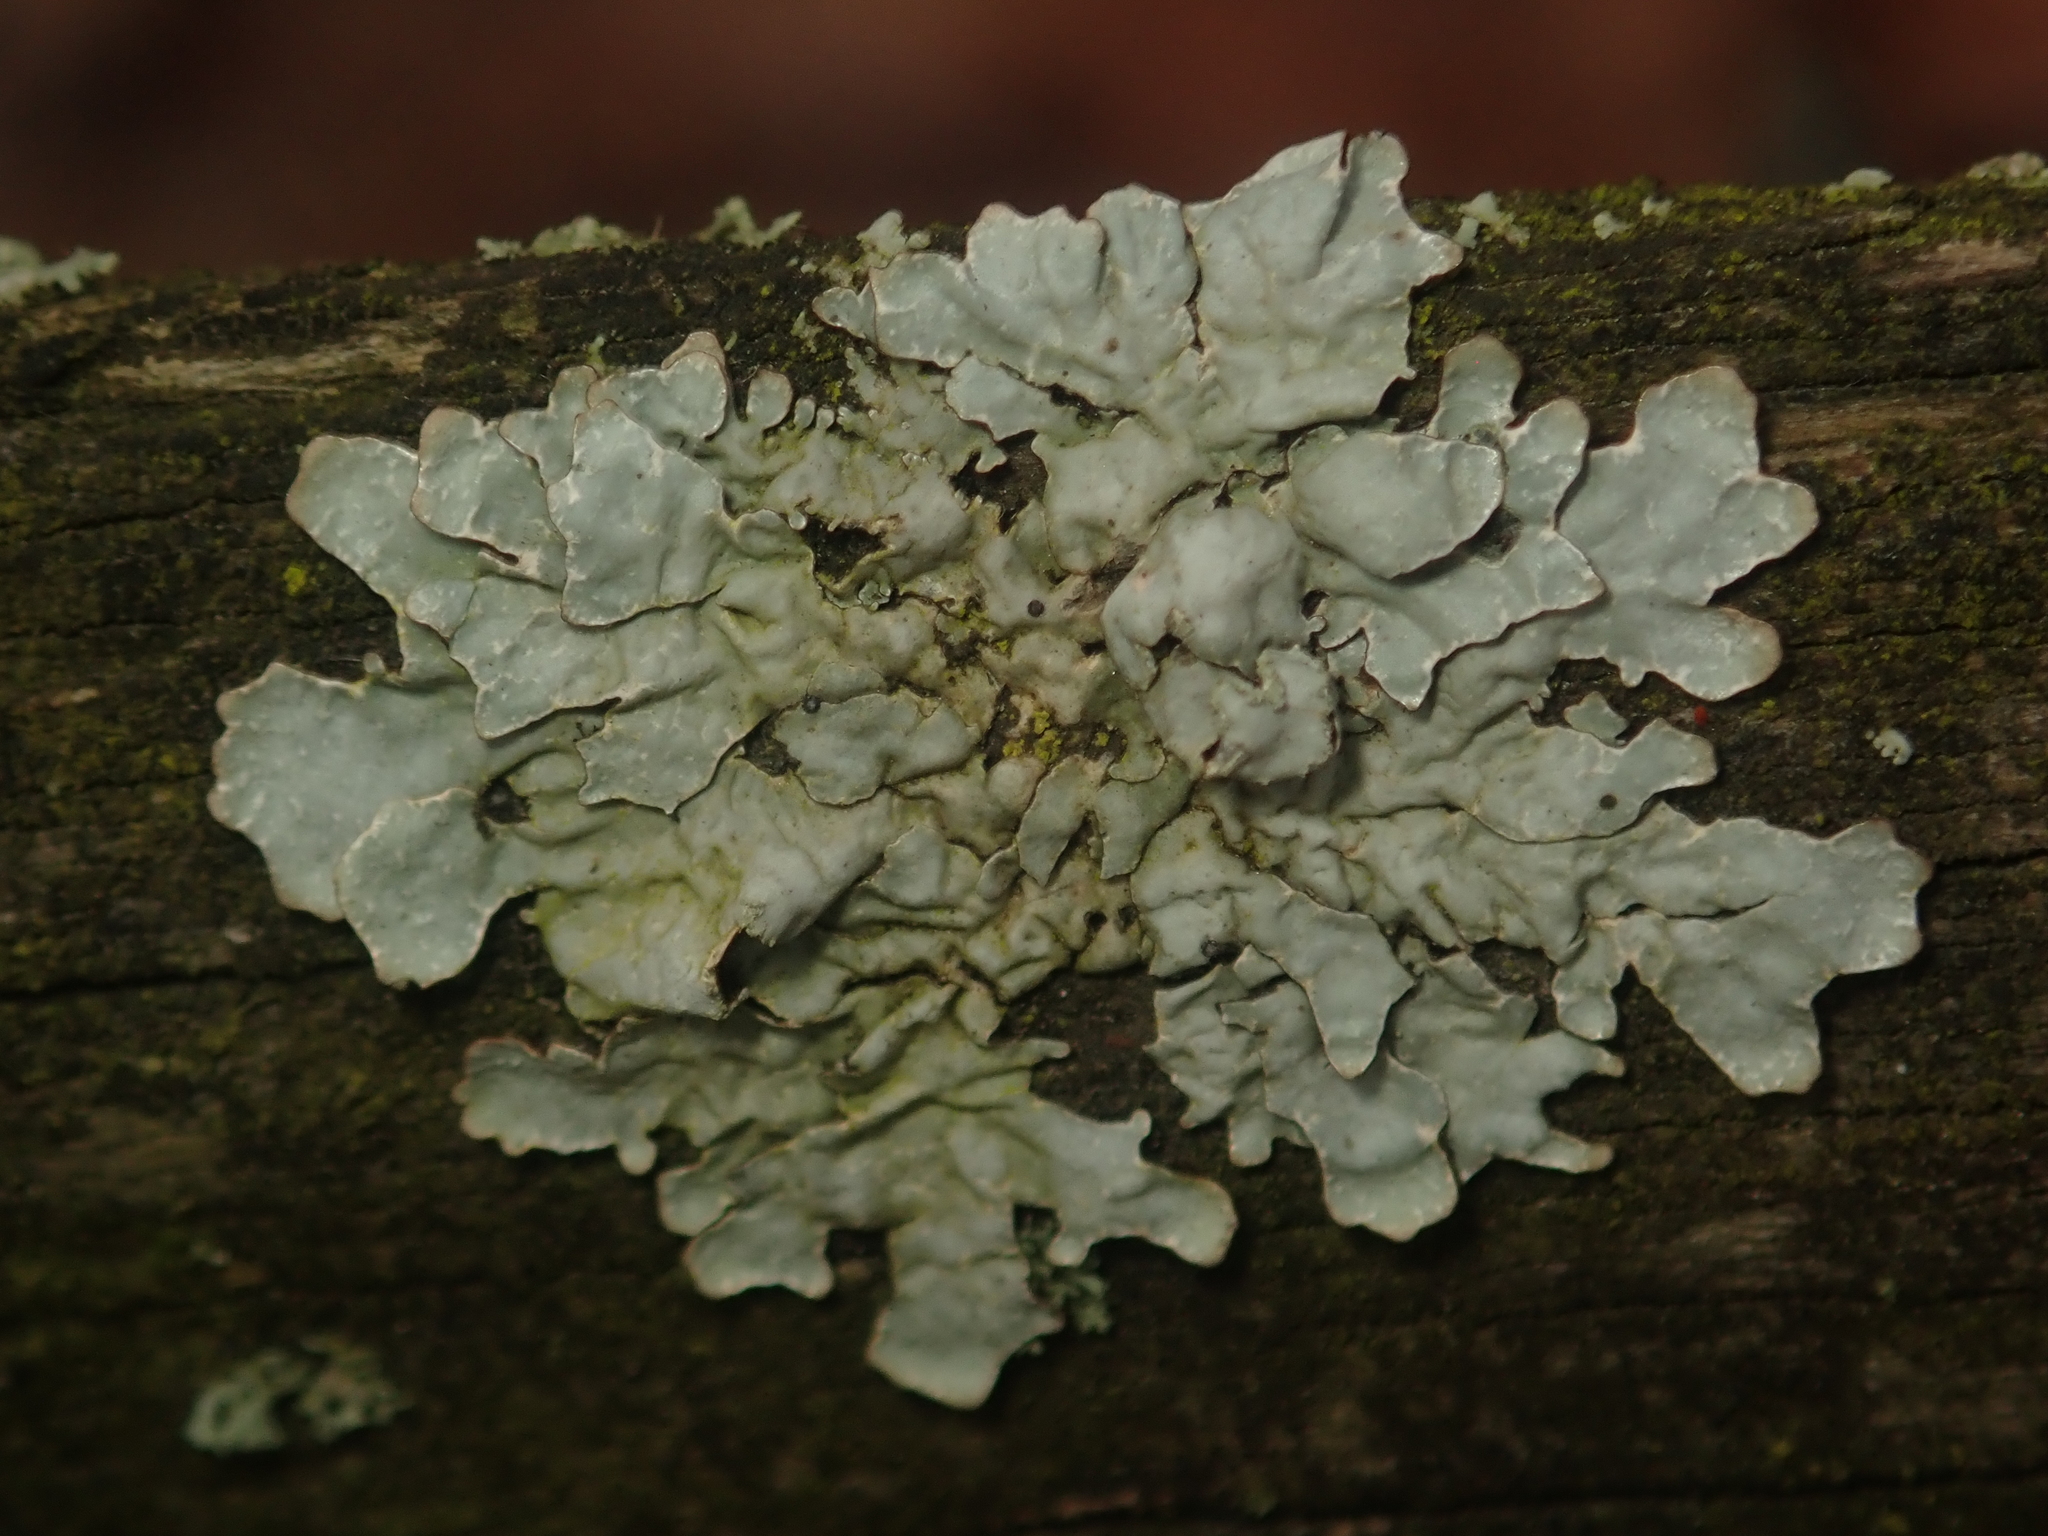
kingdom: Fungi
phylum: Ascomycota
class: Lecanoromycetes
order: Lecanorales
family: Parmeliaceae
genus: Parmelia
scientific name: Parmelia sulcata
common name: Netted shield lichen
